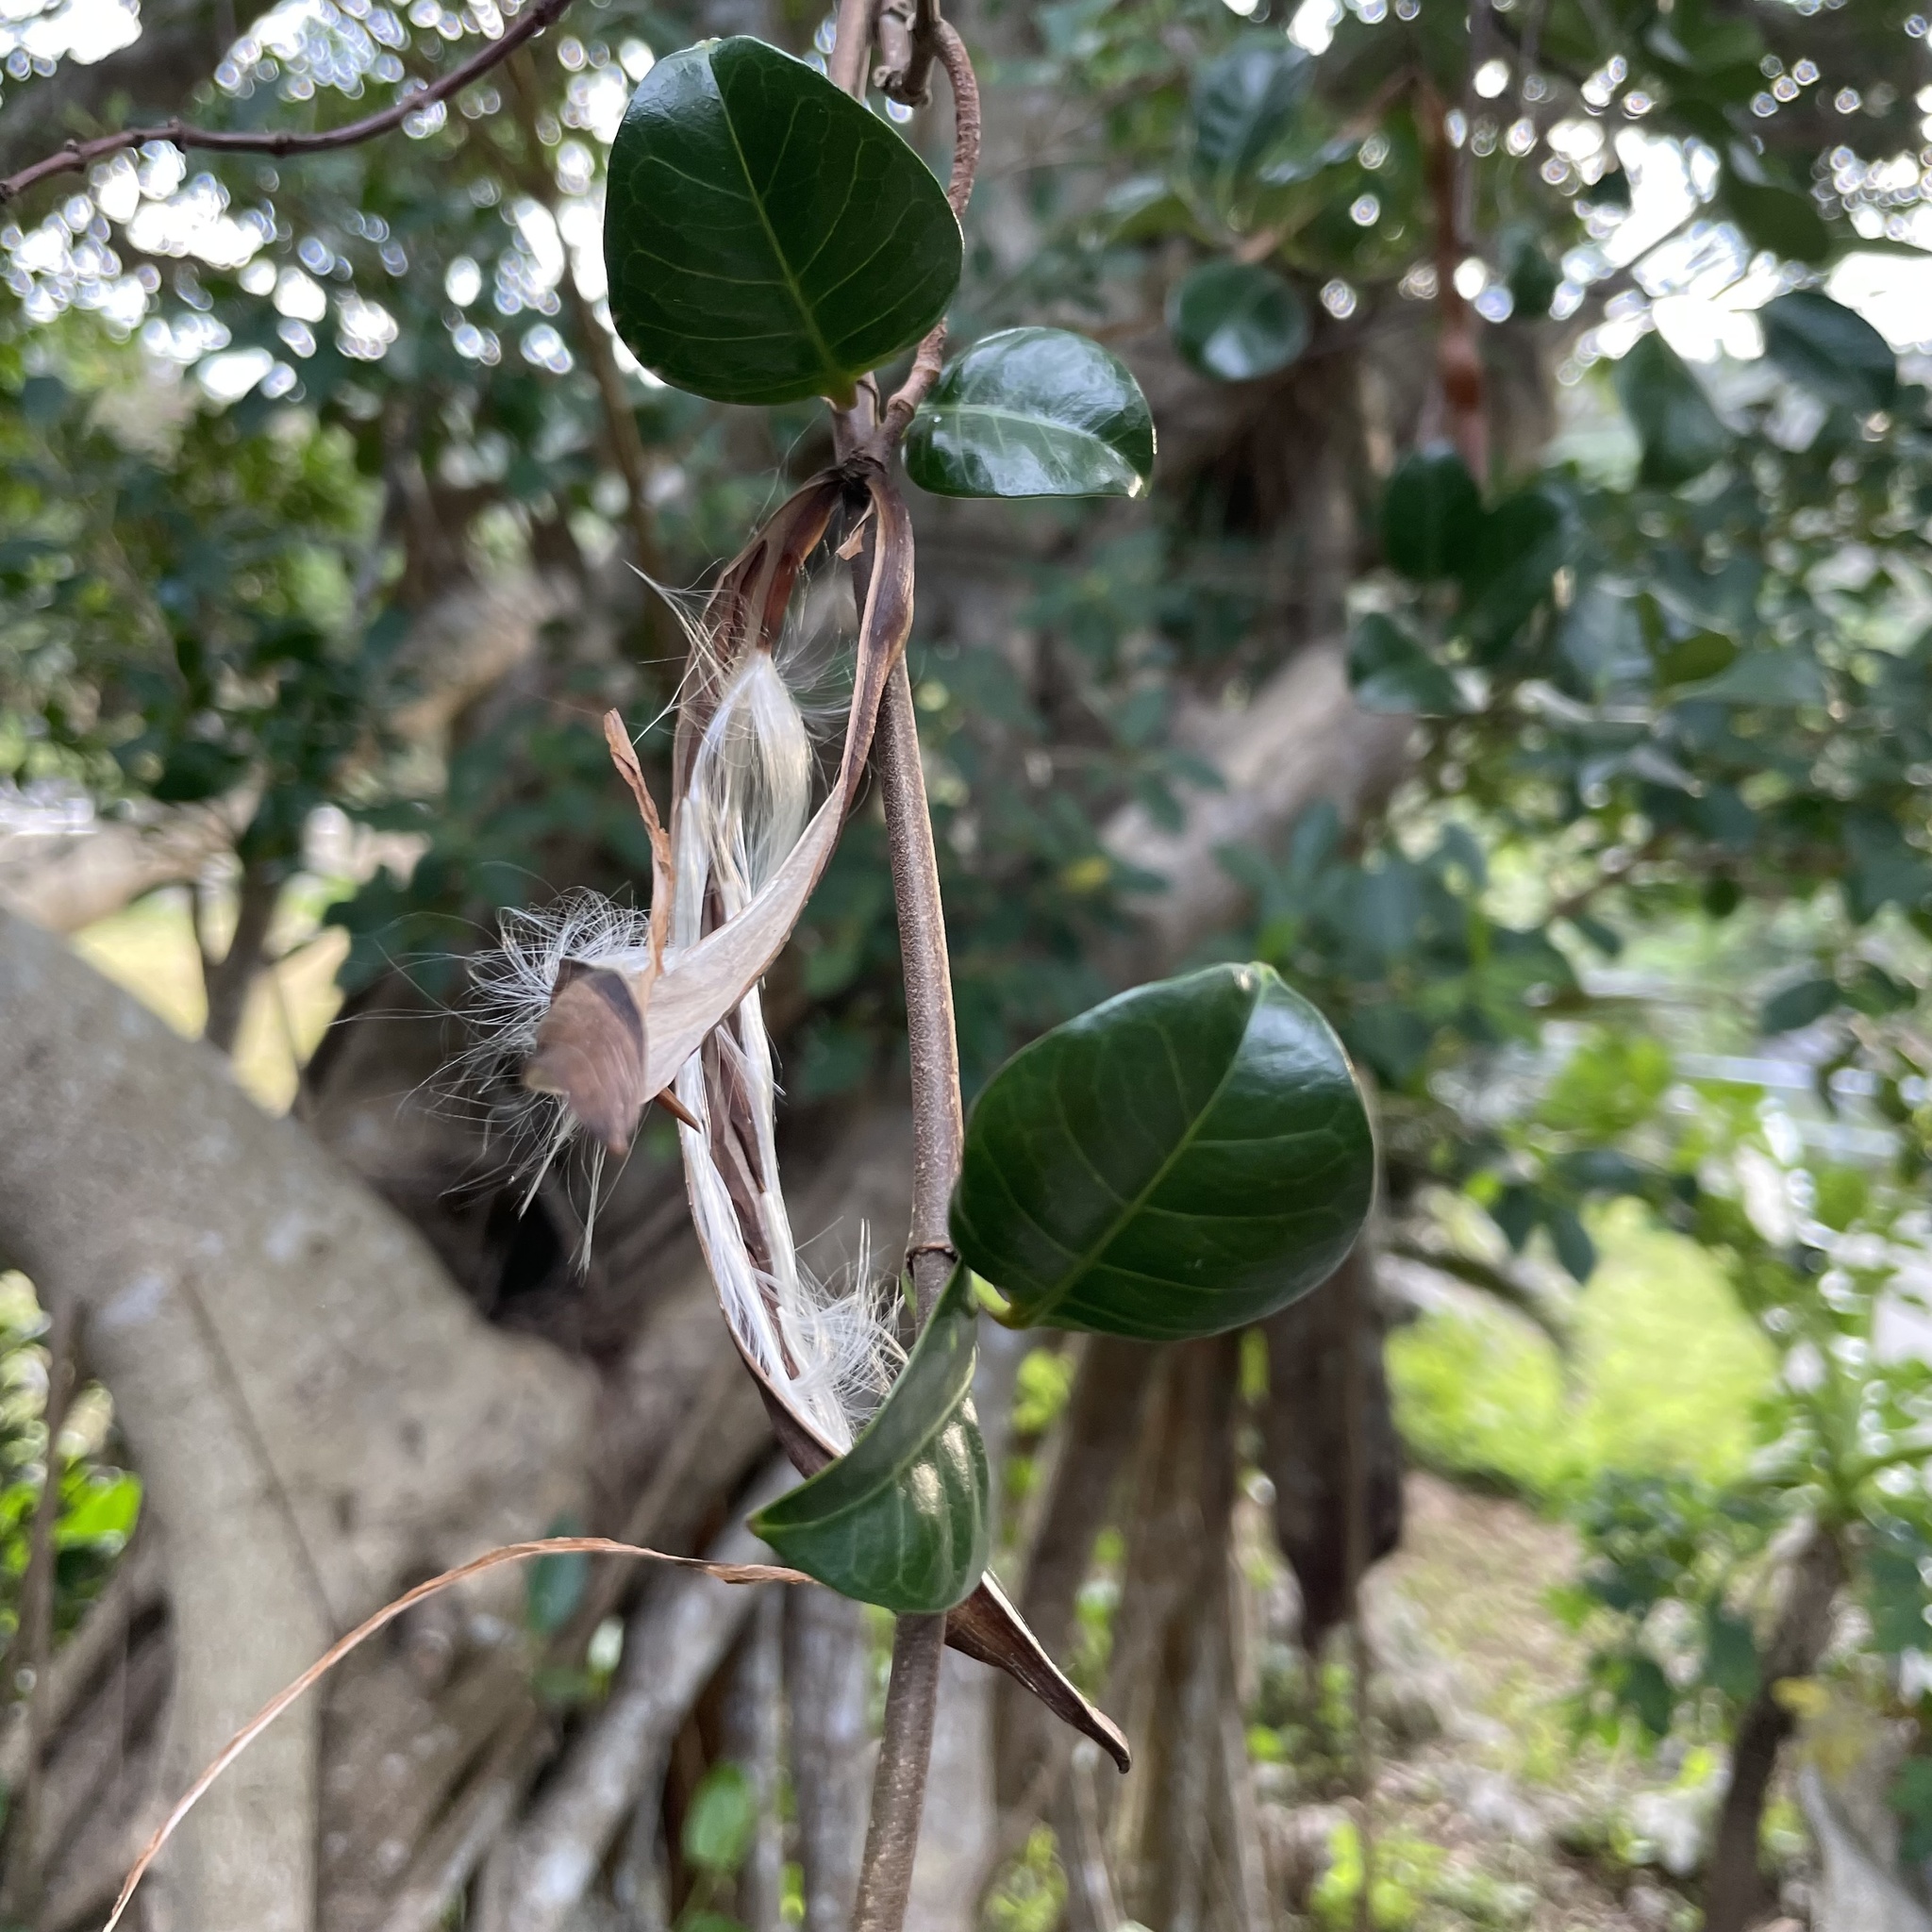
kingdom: Plantae
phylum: Tracheophyta
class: Magnoliopsida
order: Gentianales
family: Apocynaceae
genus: Trachelospermum
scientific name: Trachelospermum gracilipes
